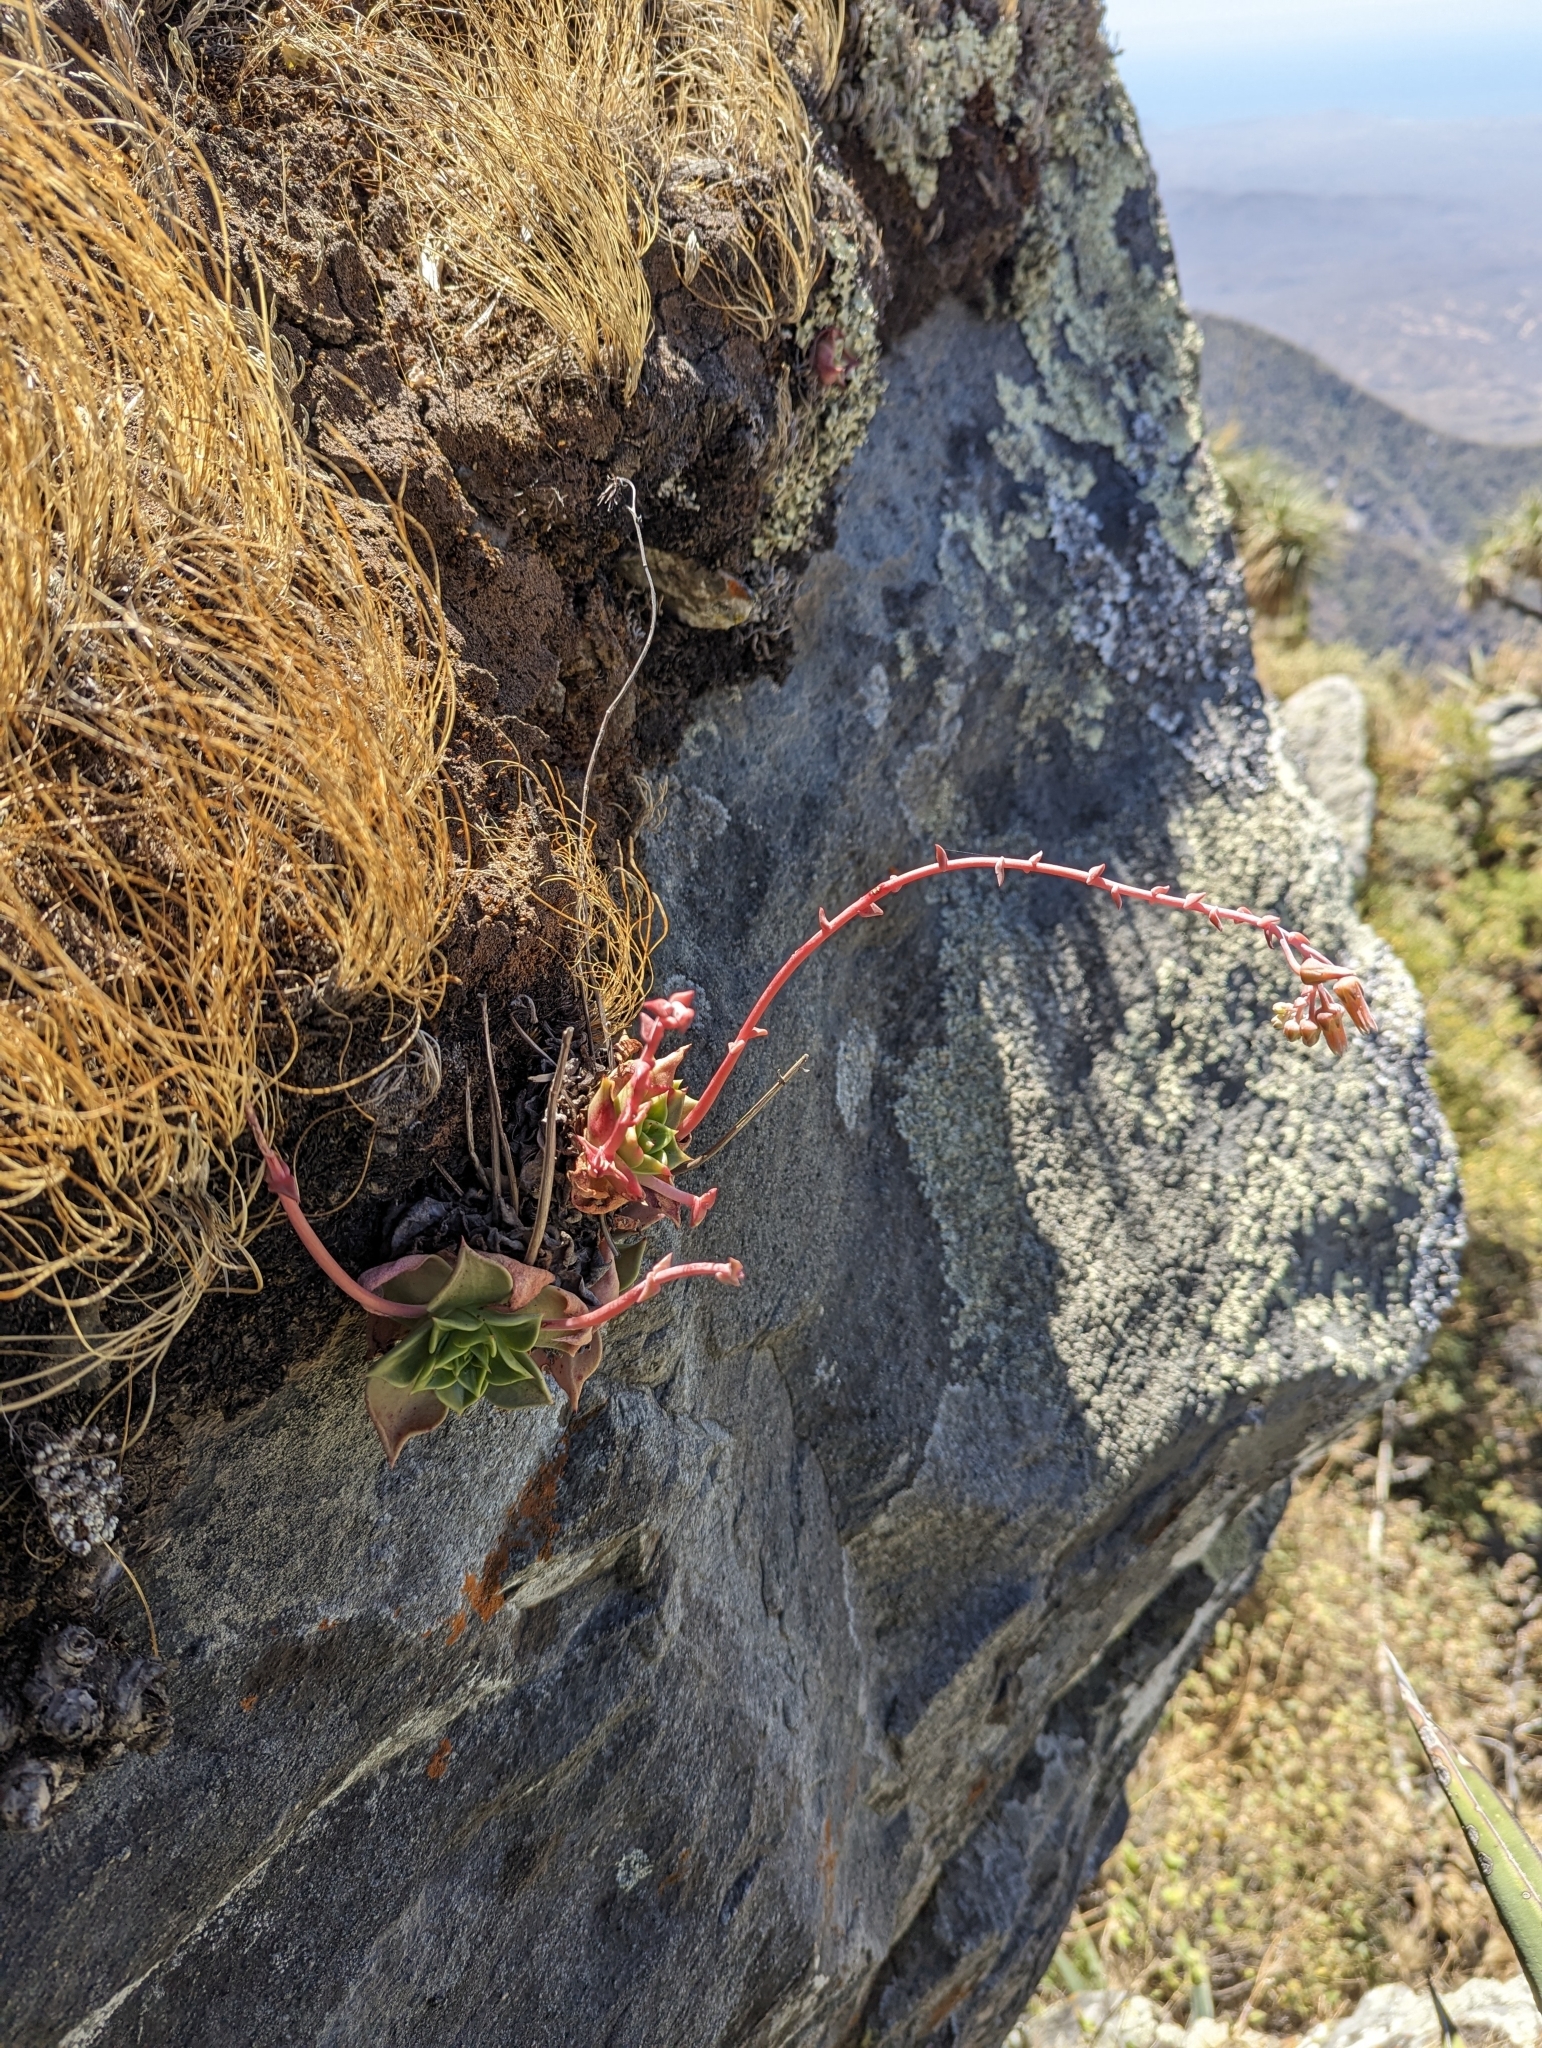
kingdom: Plantae
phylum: Tracheophyta
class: Magnoliopsida
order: Saxifragales
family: Crassulaceae
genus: Dudleya
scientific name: Dudleya rigida
